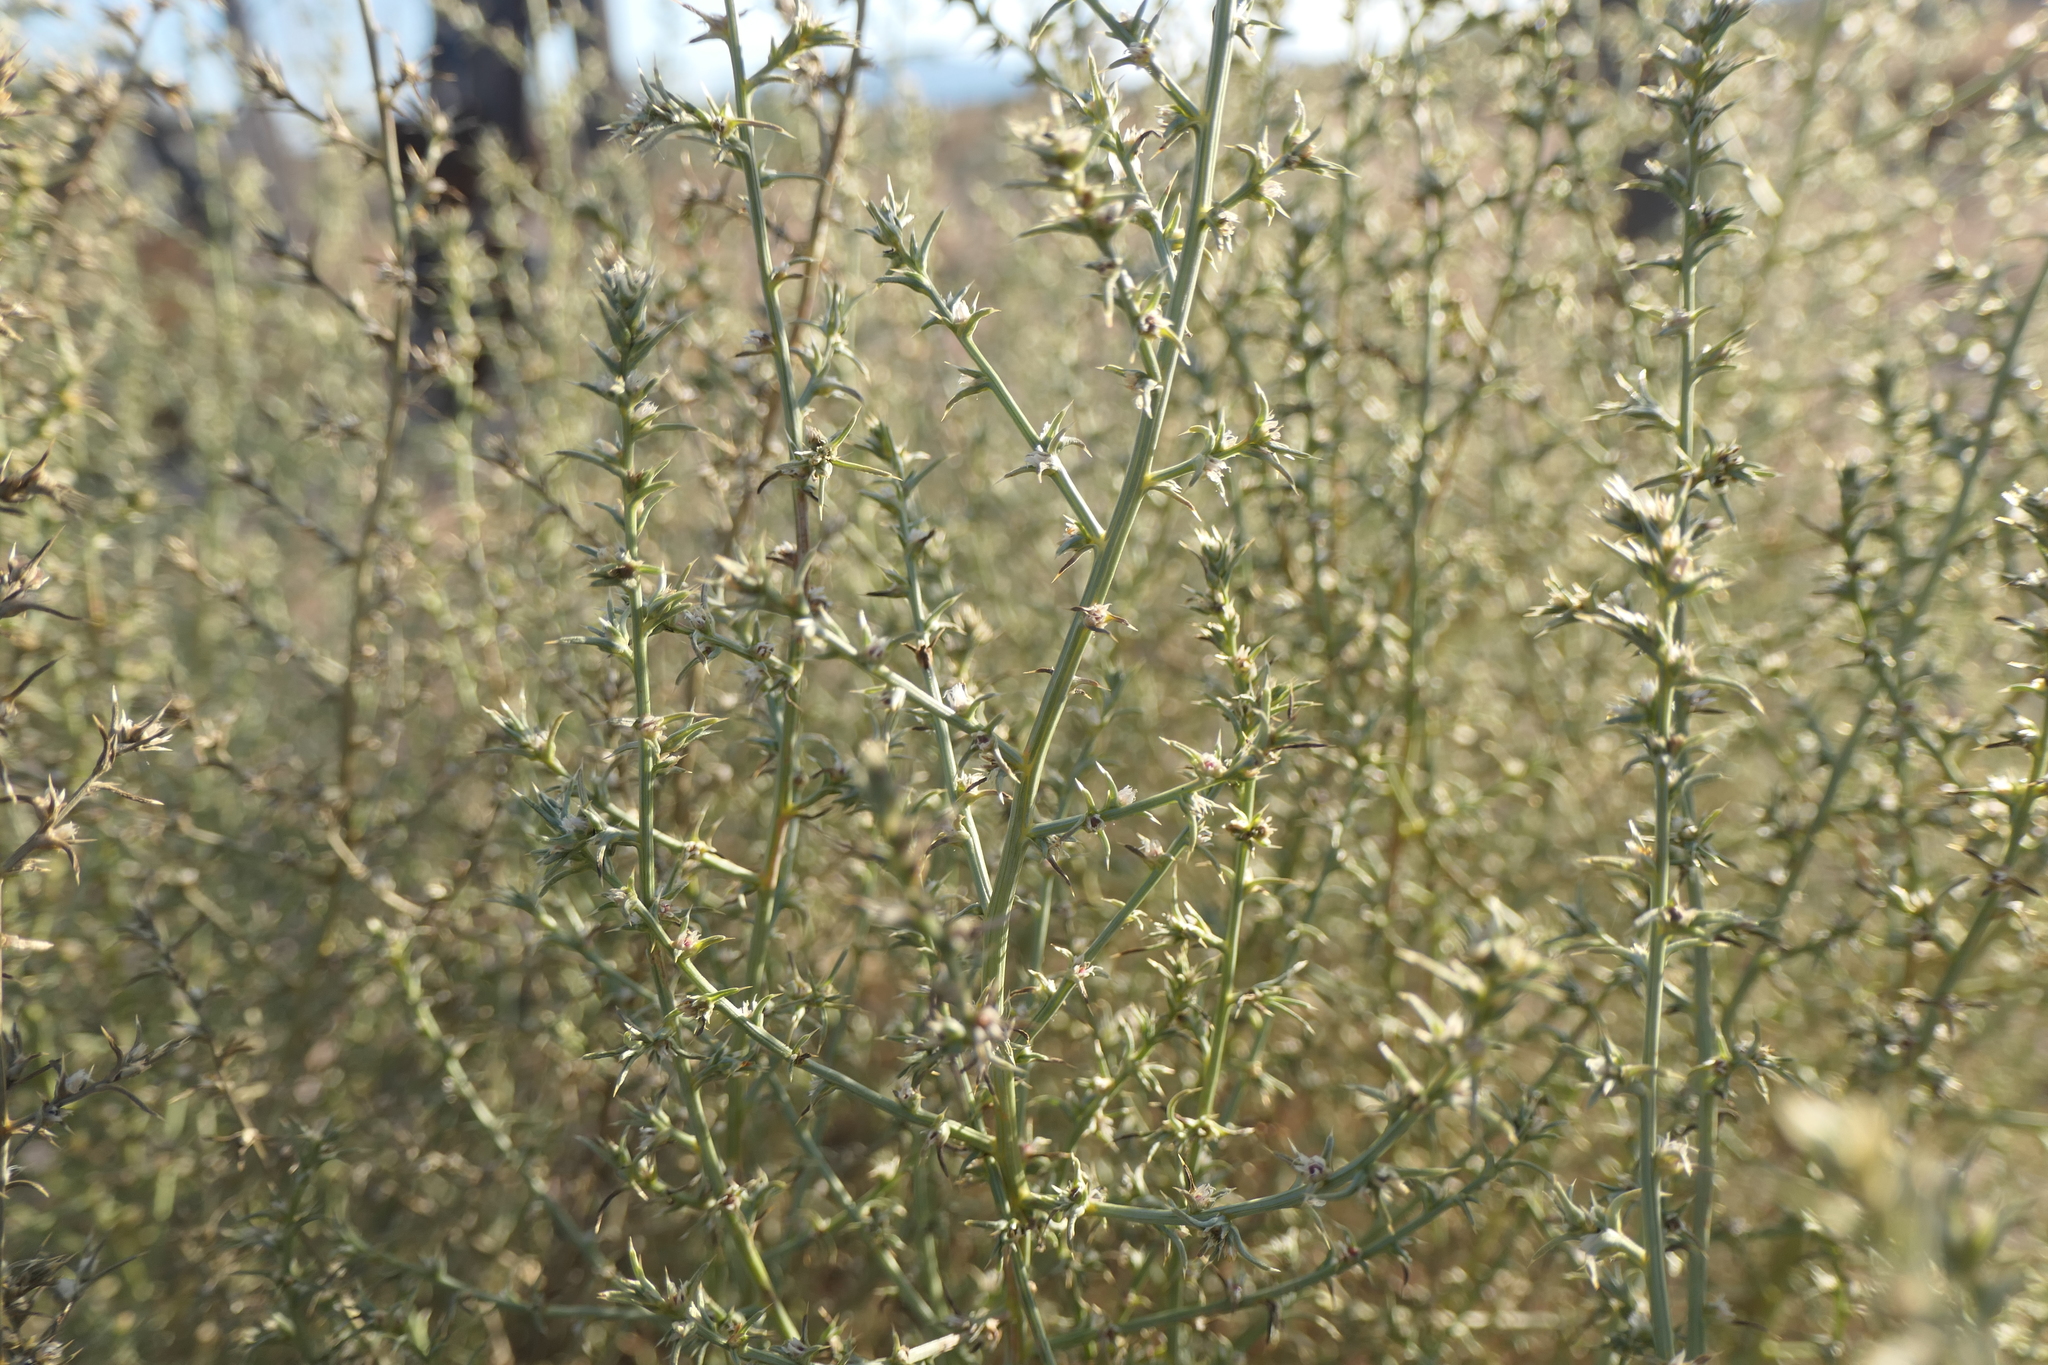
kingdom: Plantae
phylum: Tracheophyta
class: Magnoliopsida
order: Caryophyllales
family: Amaranthaceae
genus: Salsola
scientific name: Salsola tragus
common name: Prickly russian thistle
